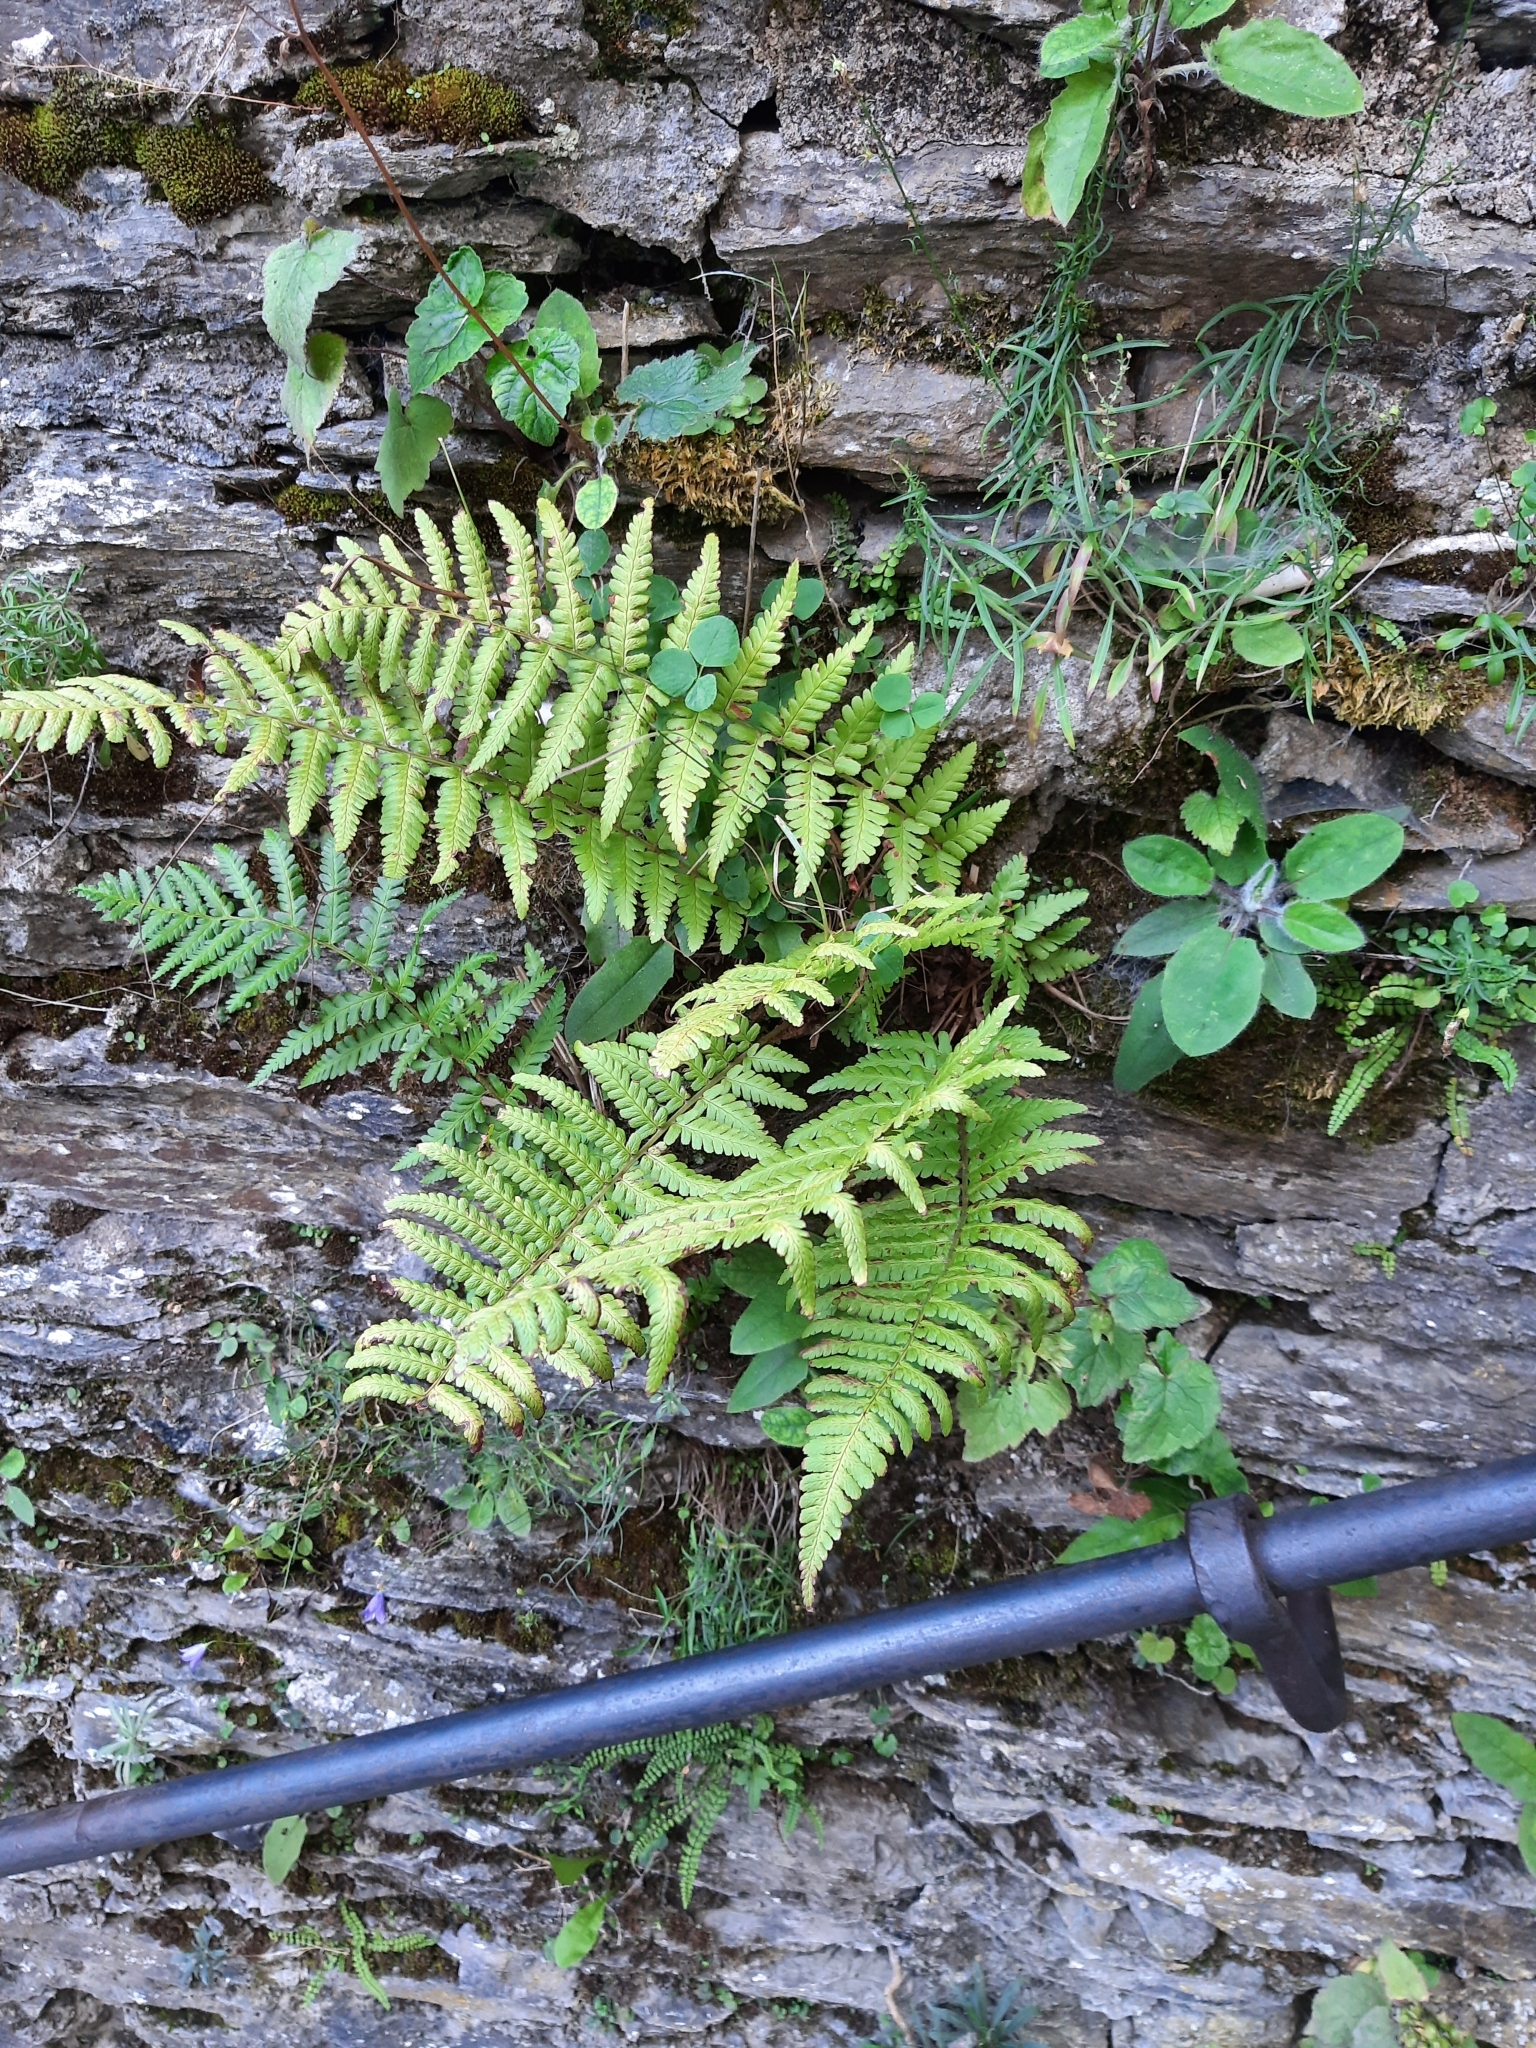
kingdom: Plantae
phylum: Tracheophyta
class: Polypodiopsida
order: Polypodiales
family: Dryopteridaceae
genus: Dryopteris
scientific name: Dryopteris filix-mas
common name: Male fern
